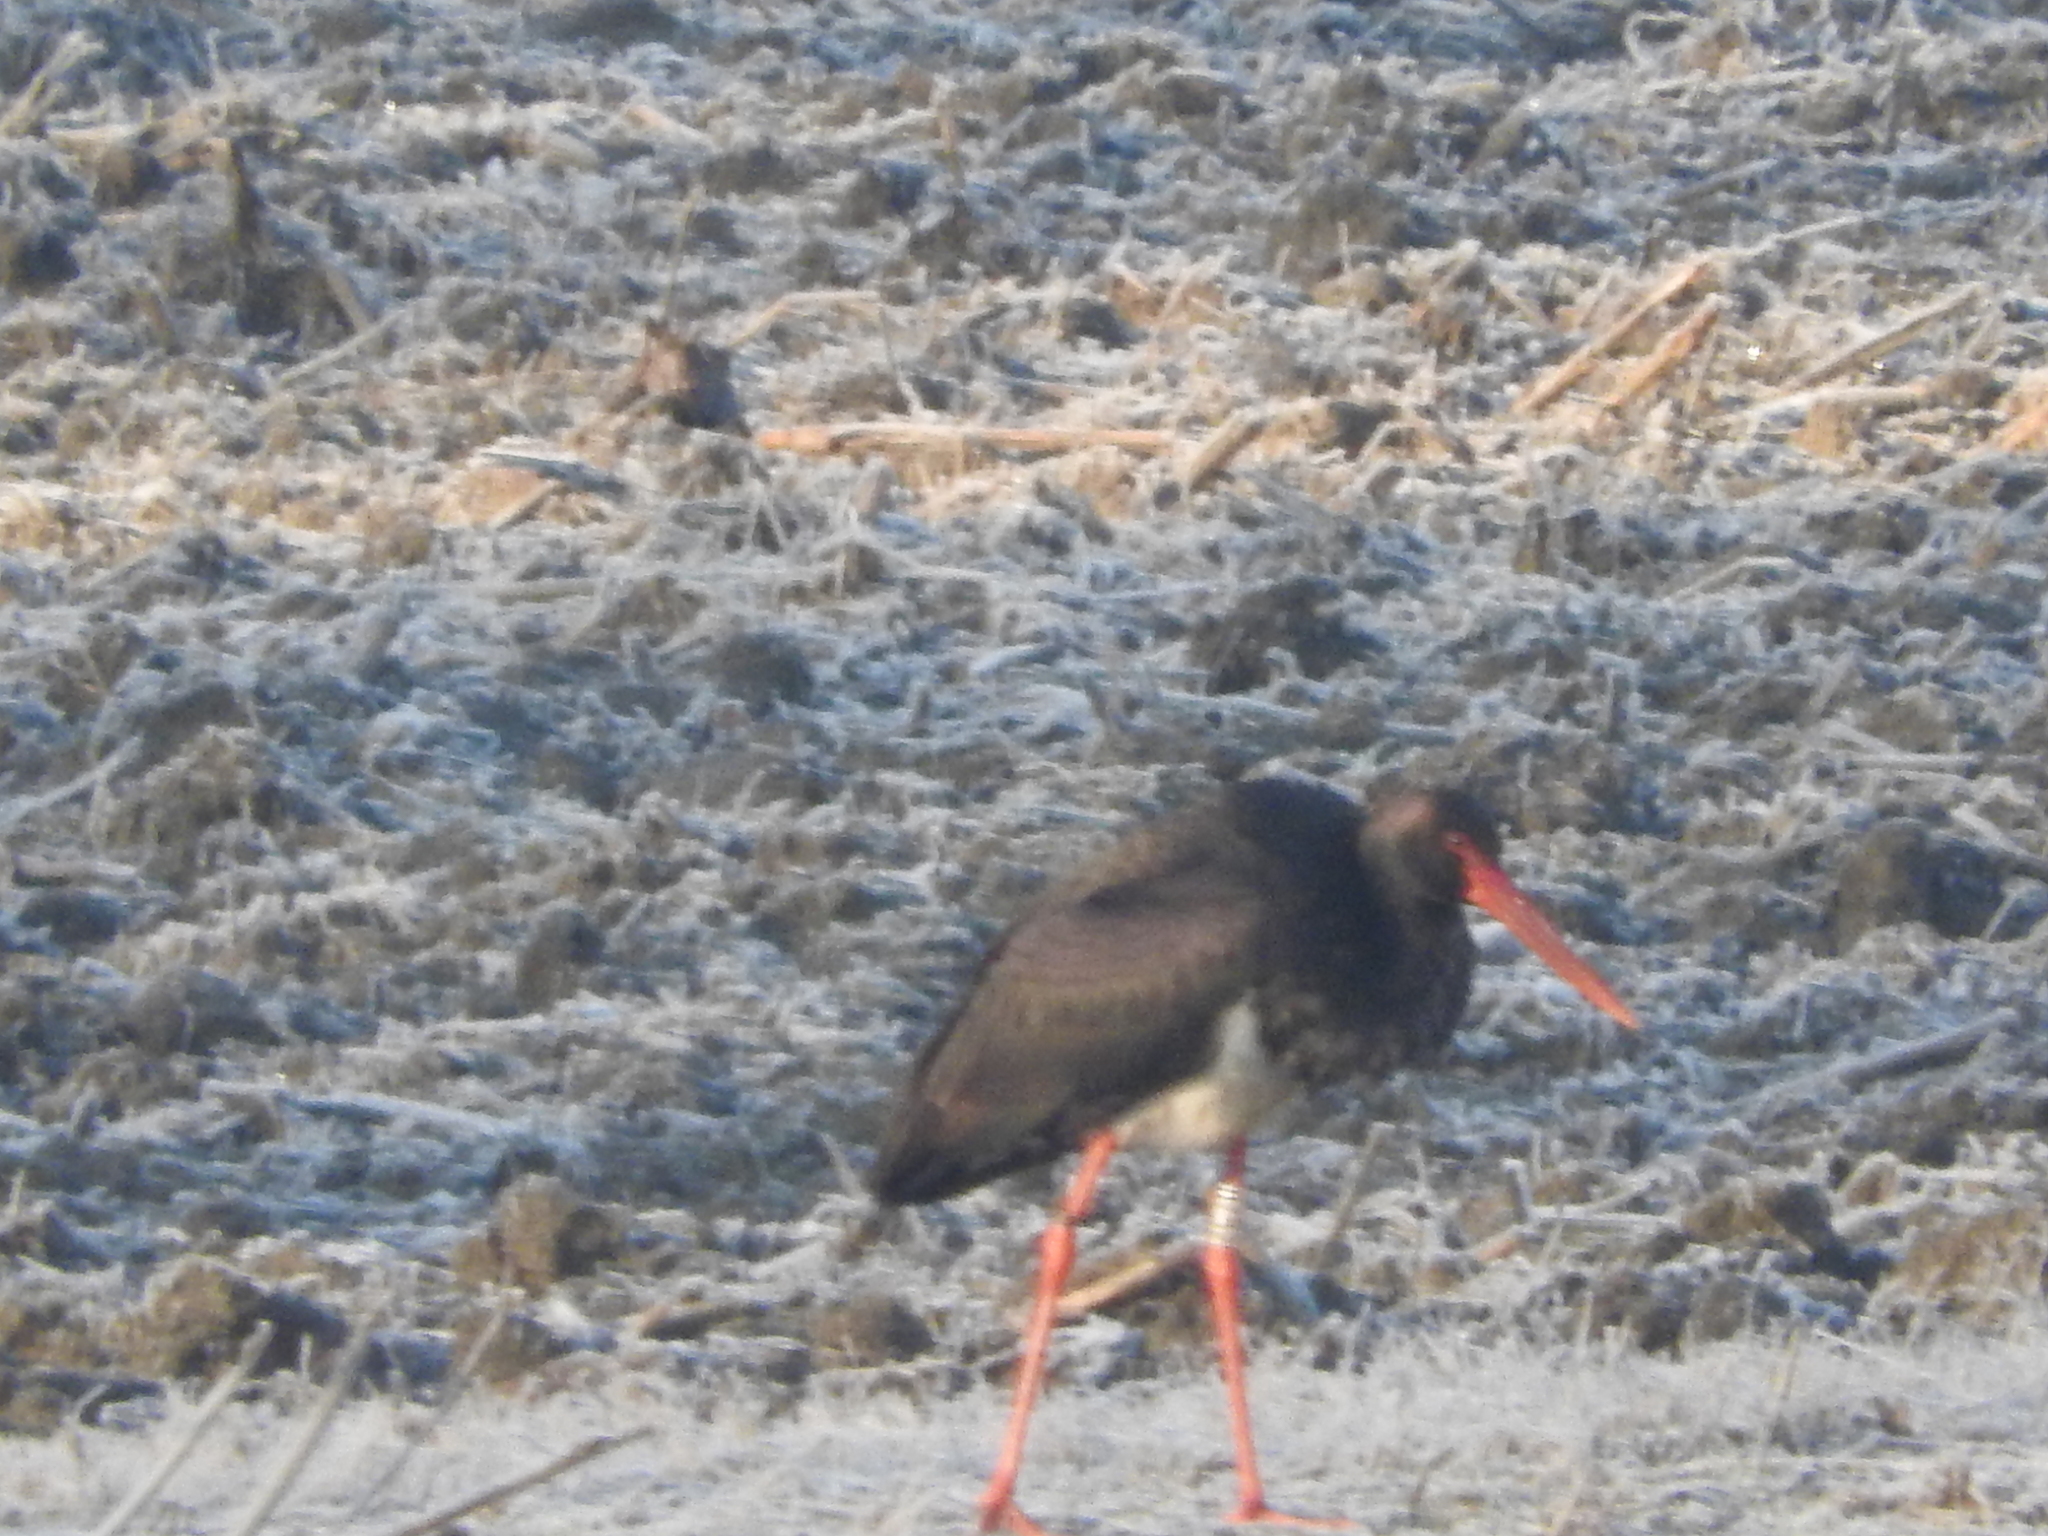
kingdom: Animalia
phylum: Chordata
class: Aves
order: Ciconiiformes
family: Ciconiidae
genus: Ciconia
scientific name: Ciconia nigra
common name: Black stork
